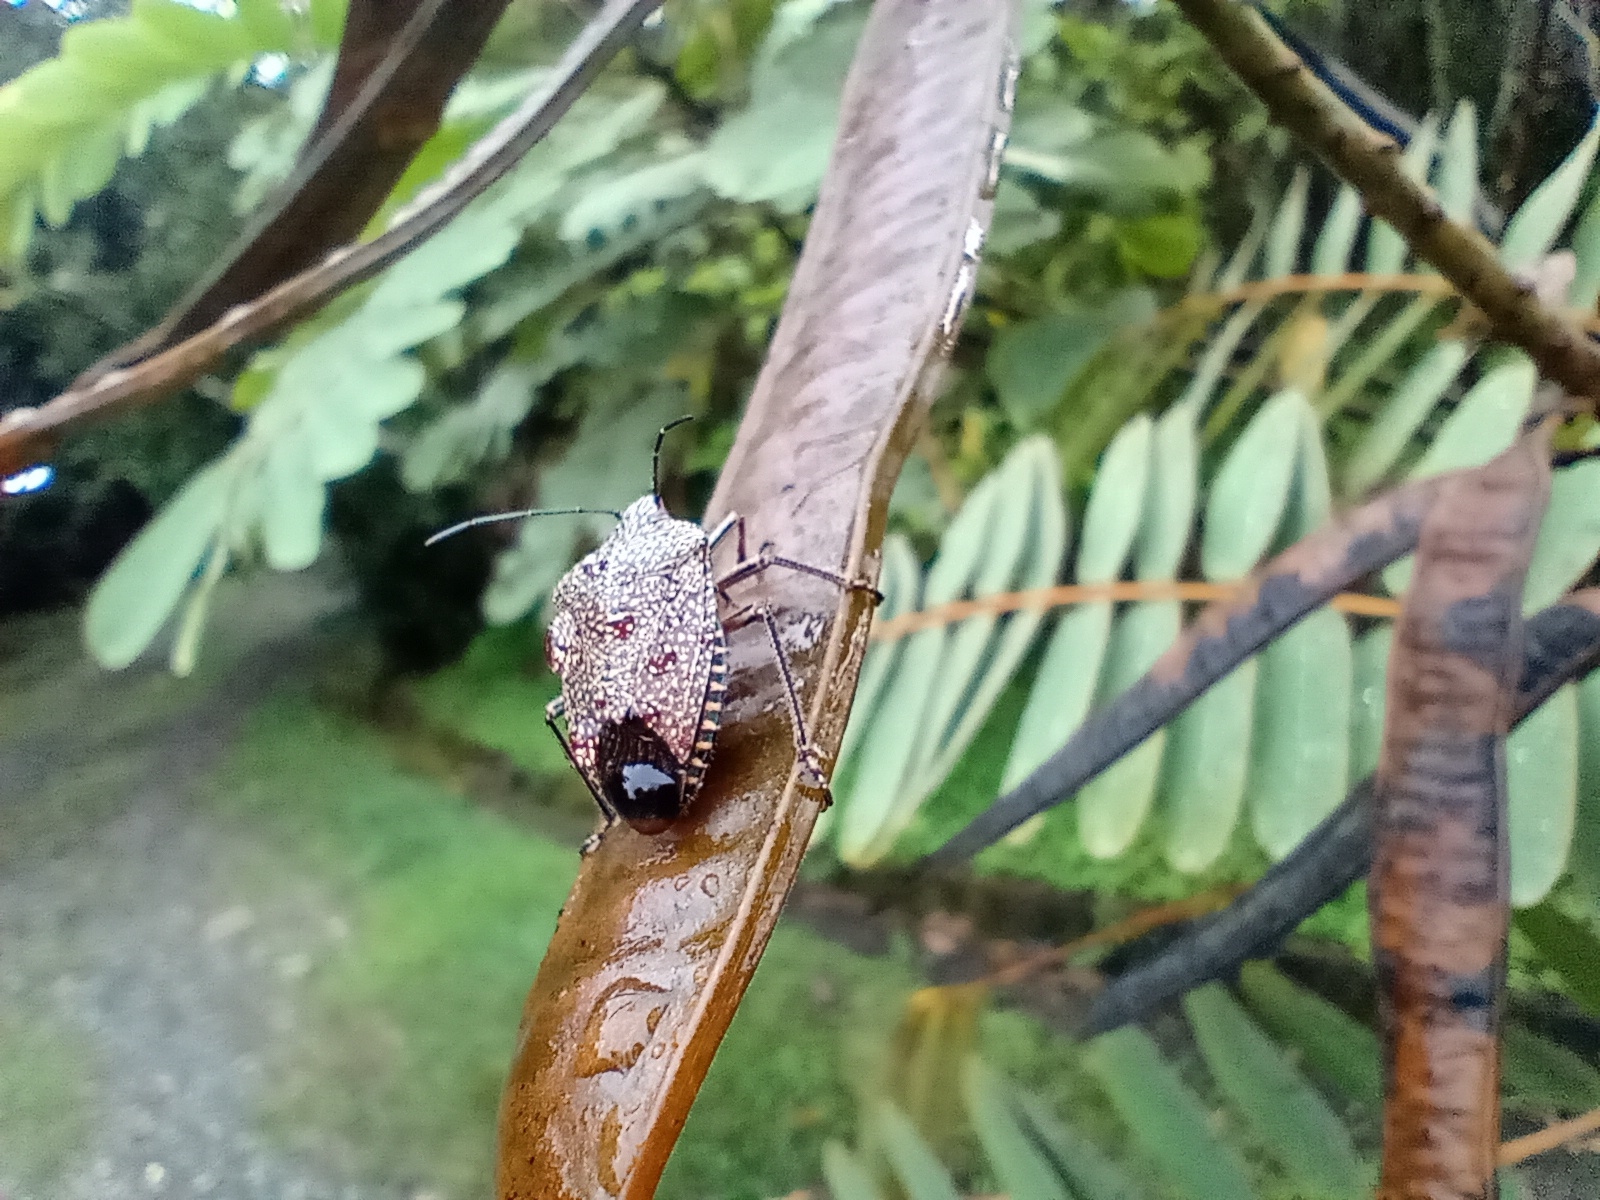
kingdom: Animalia
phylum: Arthropoda
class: Insecta
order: Hemiptera
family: Pentatomidae
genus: Pellaea
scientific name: Pellaea stictica
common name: Stink bug
